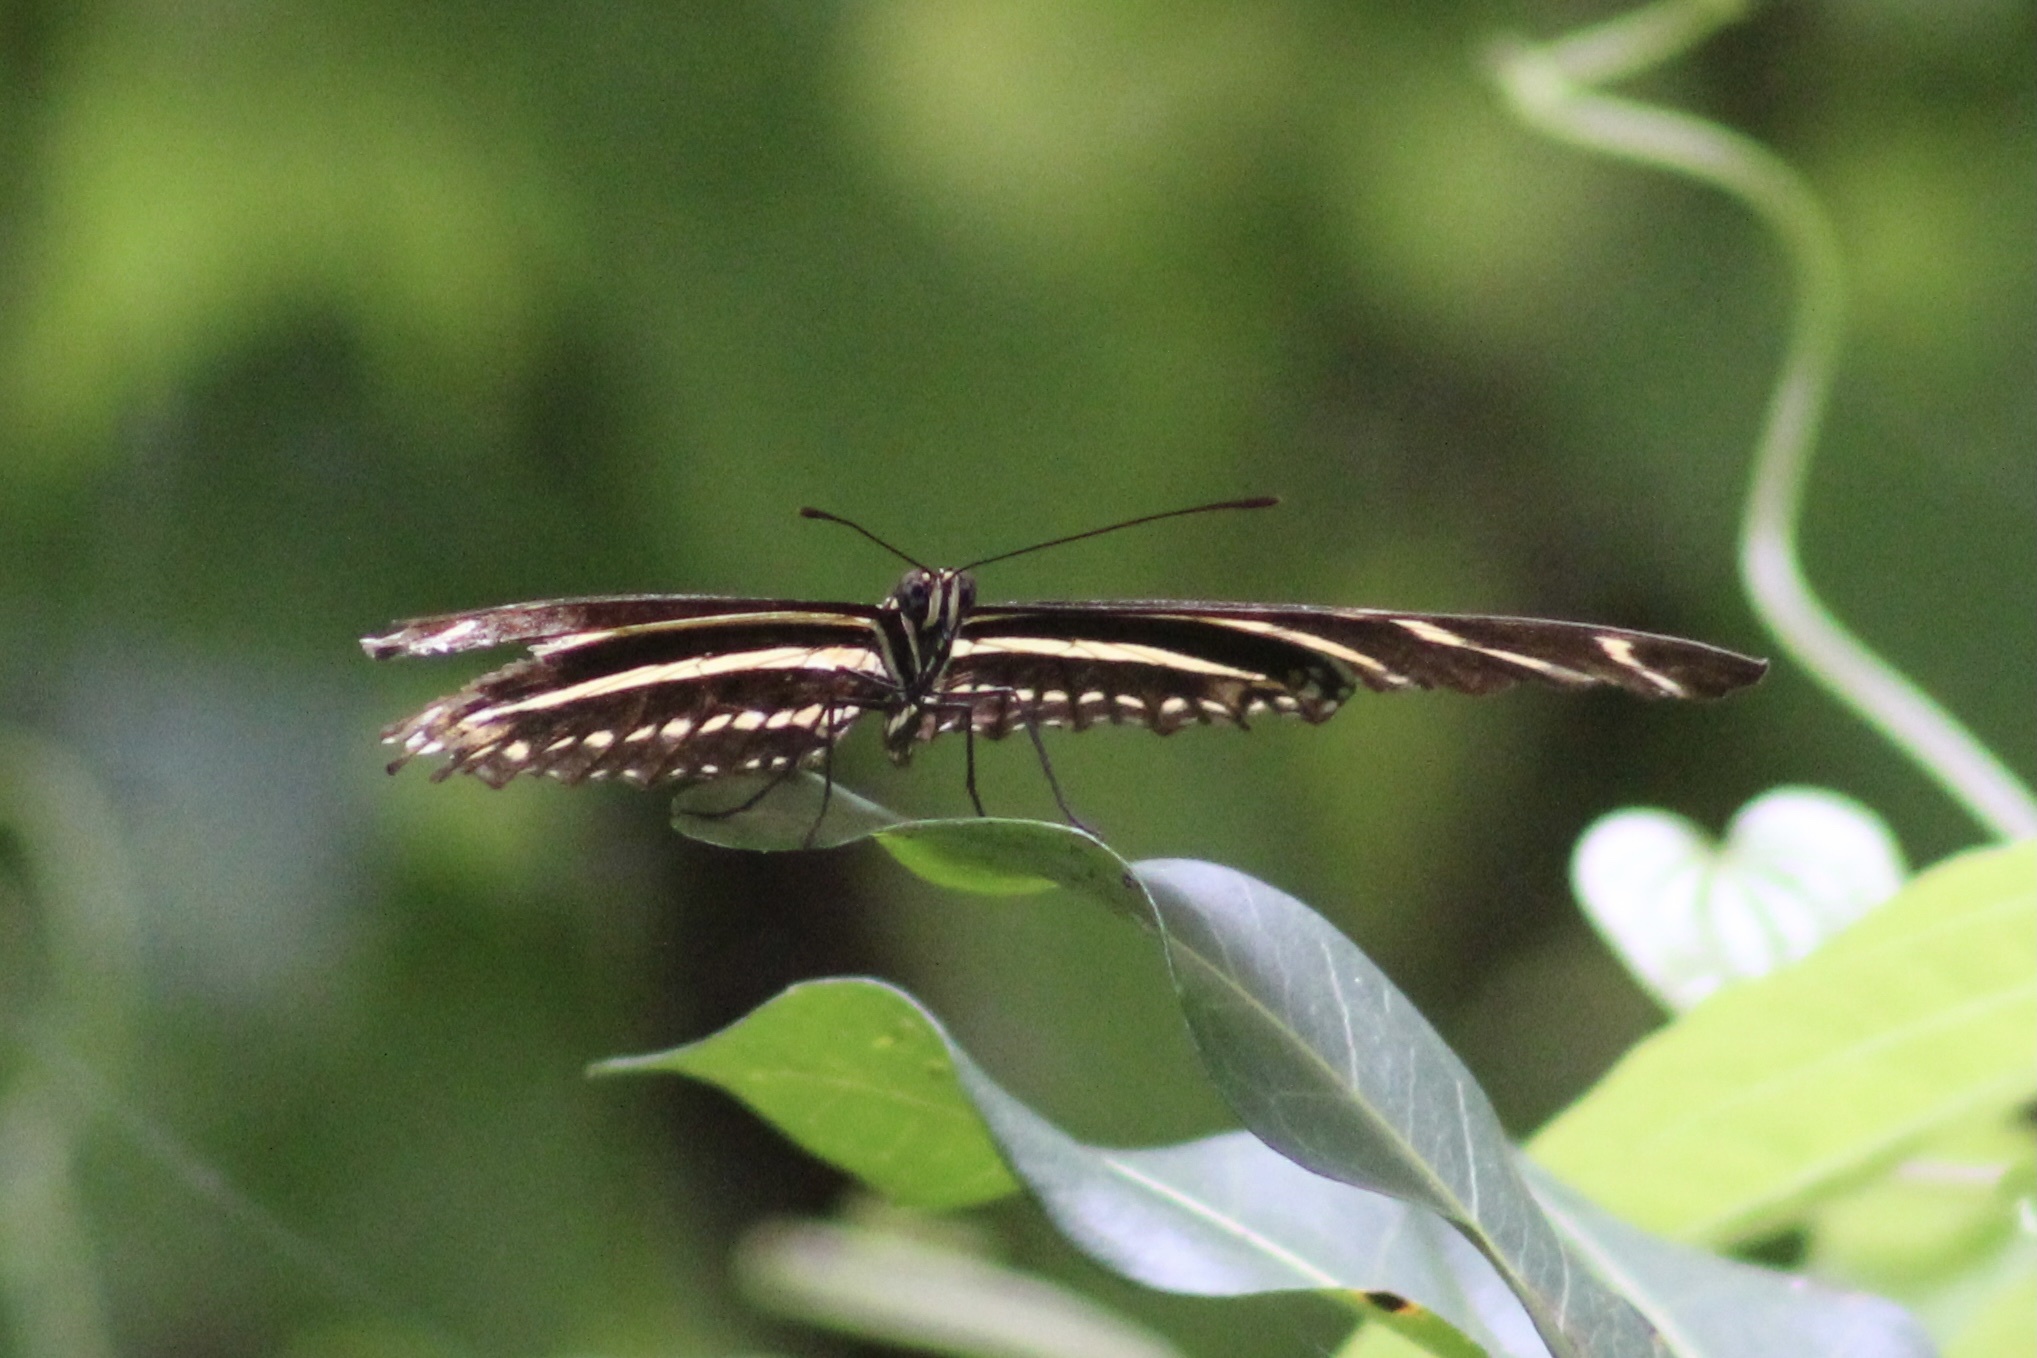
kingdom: Animalia
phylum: Arthropoda
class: Insecta
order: Lepidoptera
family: Nymphalidae
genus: Heliconius
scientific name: Heliconius charithonia
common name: Zebra long wing
